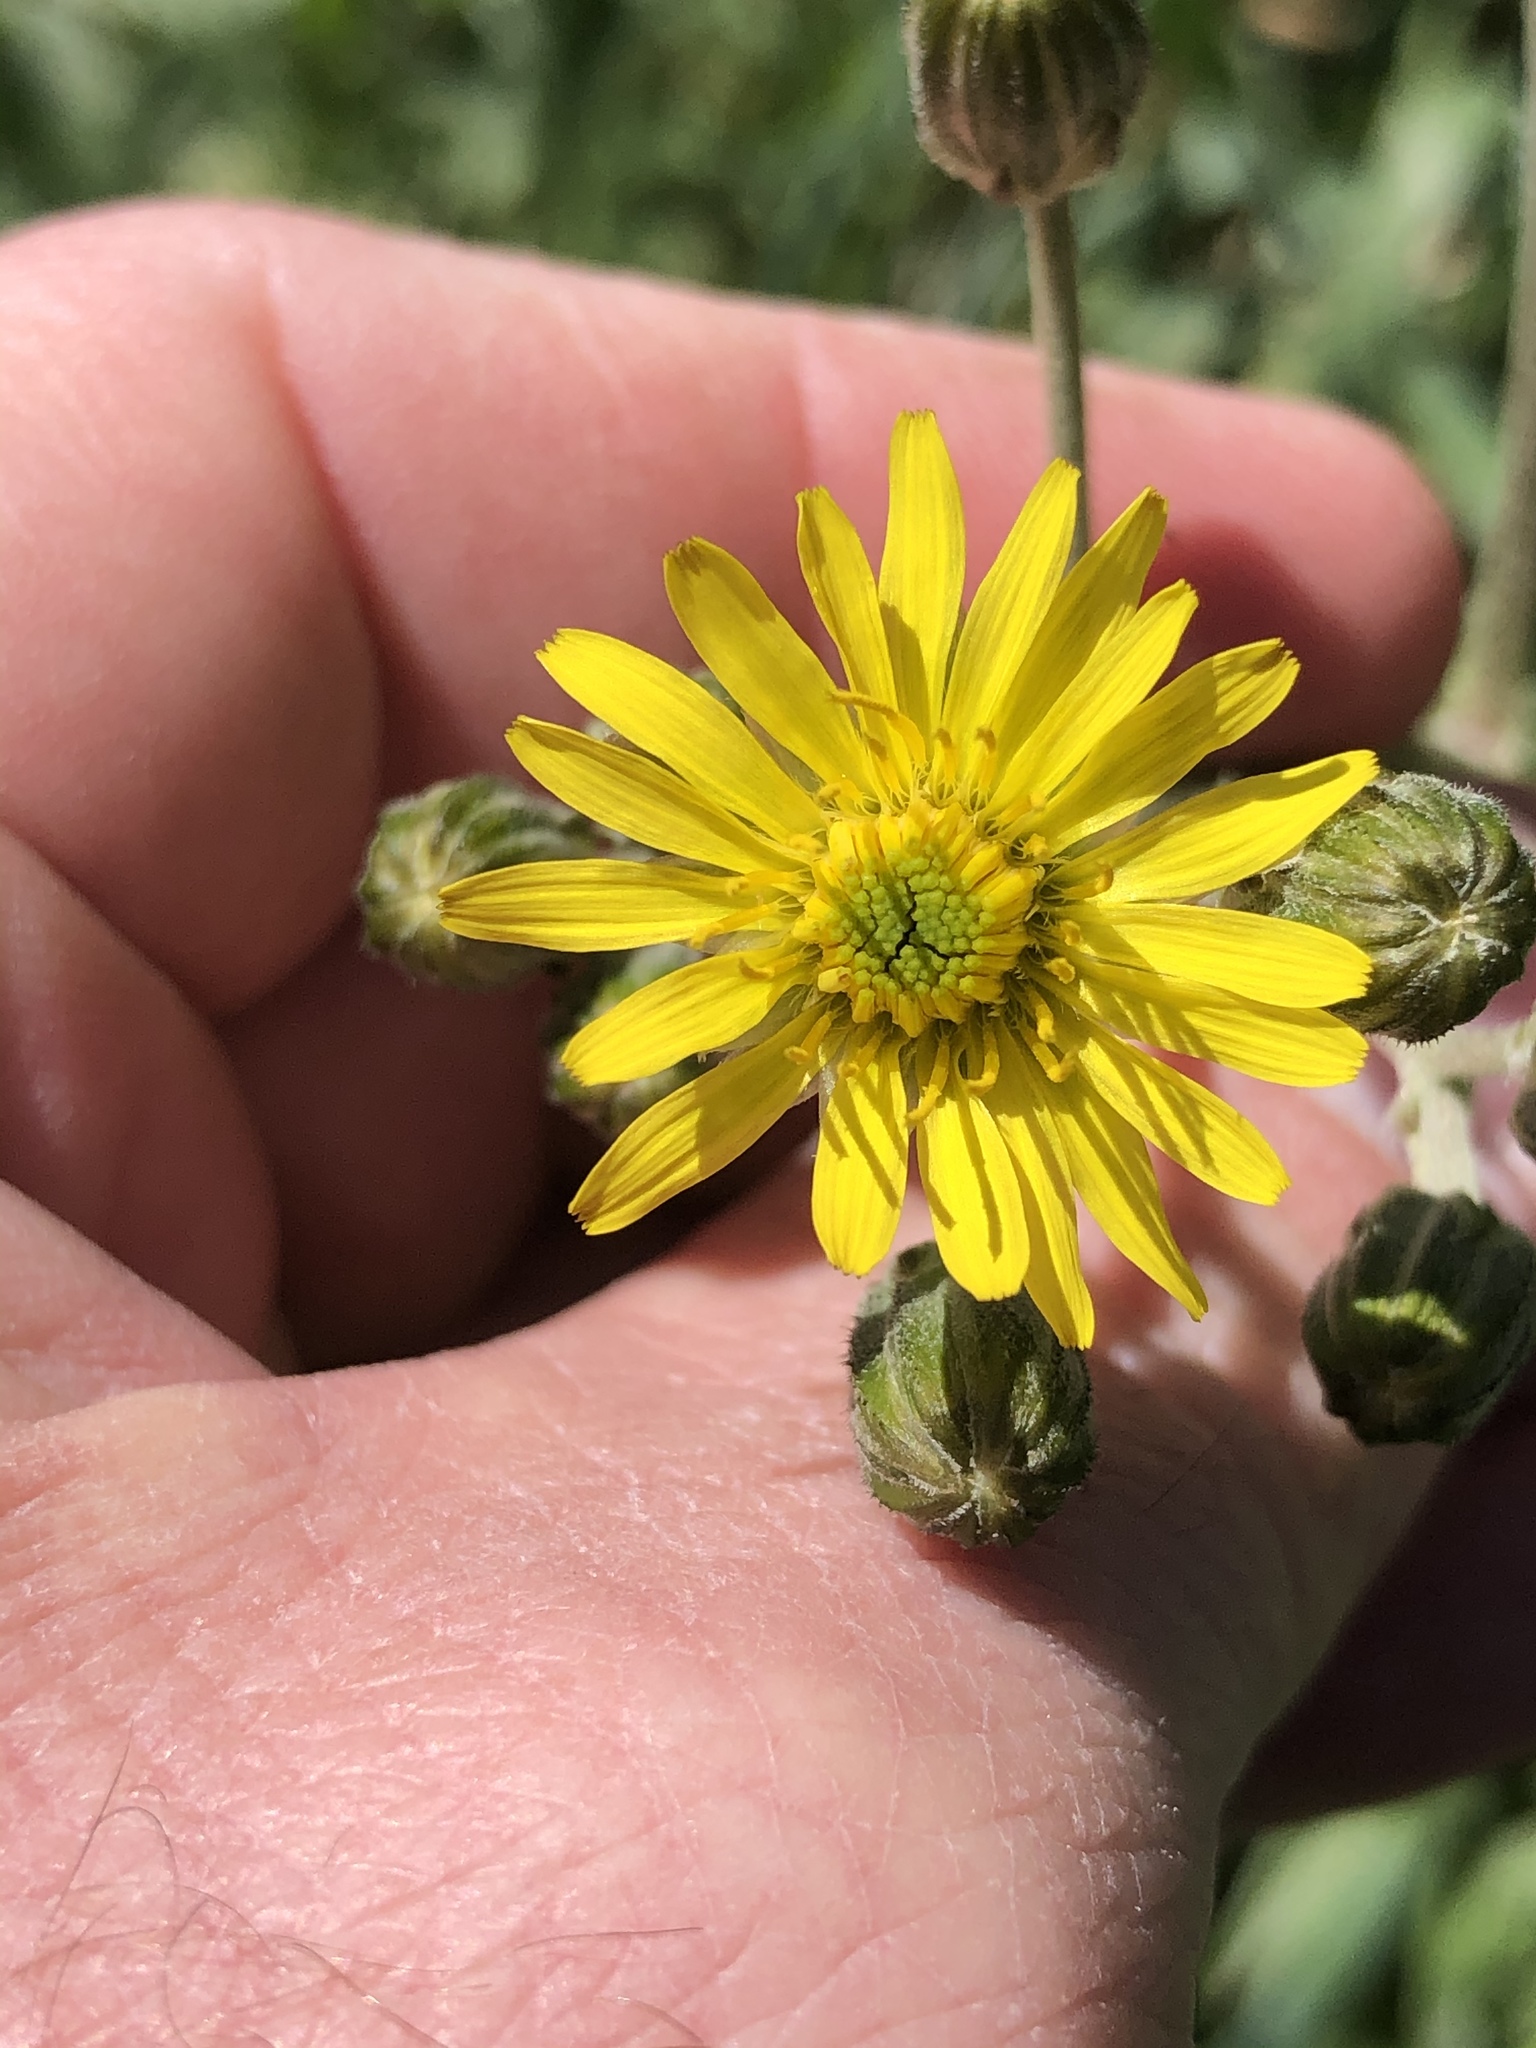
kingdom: Plantae
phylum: Tracheophyta
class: Magnoliopsida
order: Asterales
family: Asteraceae
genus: Crepis
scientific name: Crepis capillaris
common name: Smooth hawksbeard
